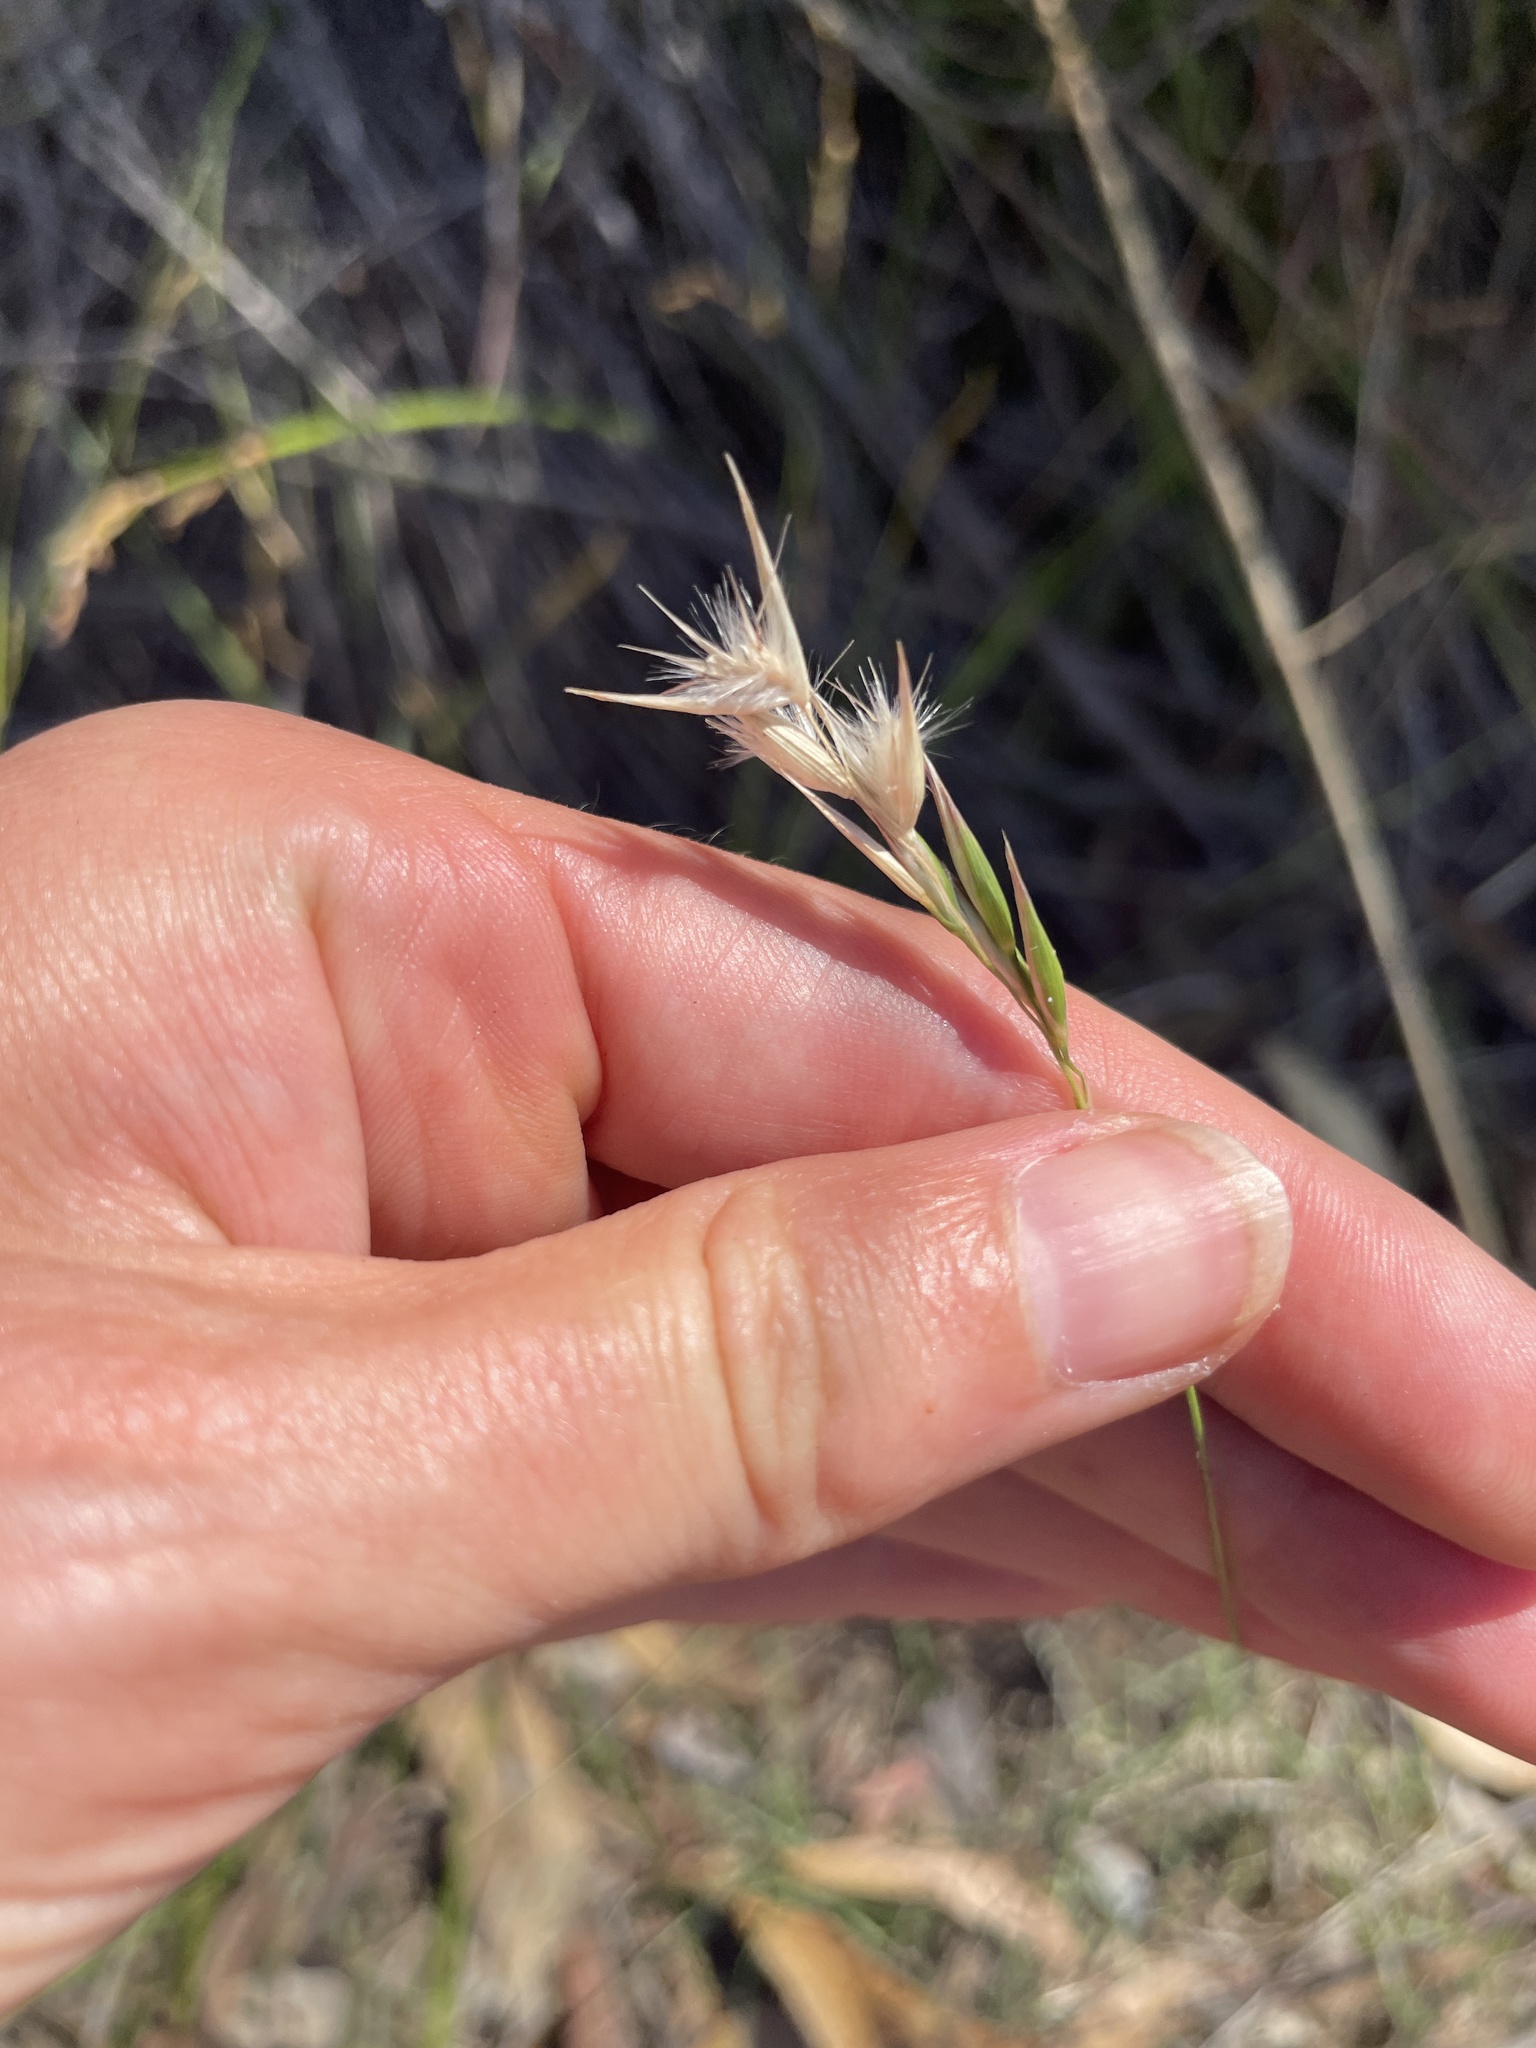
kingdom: Plantae
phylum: Tracheophyta
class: Liliopsida
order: Poales
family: Poaceae
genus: Rytidosperma
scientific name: Rytidosperma
